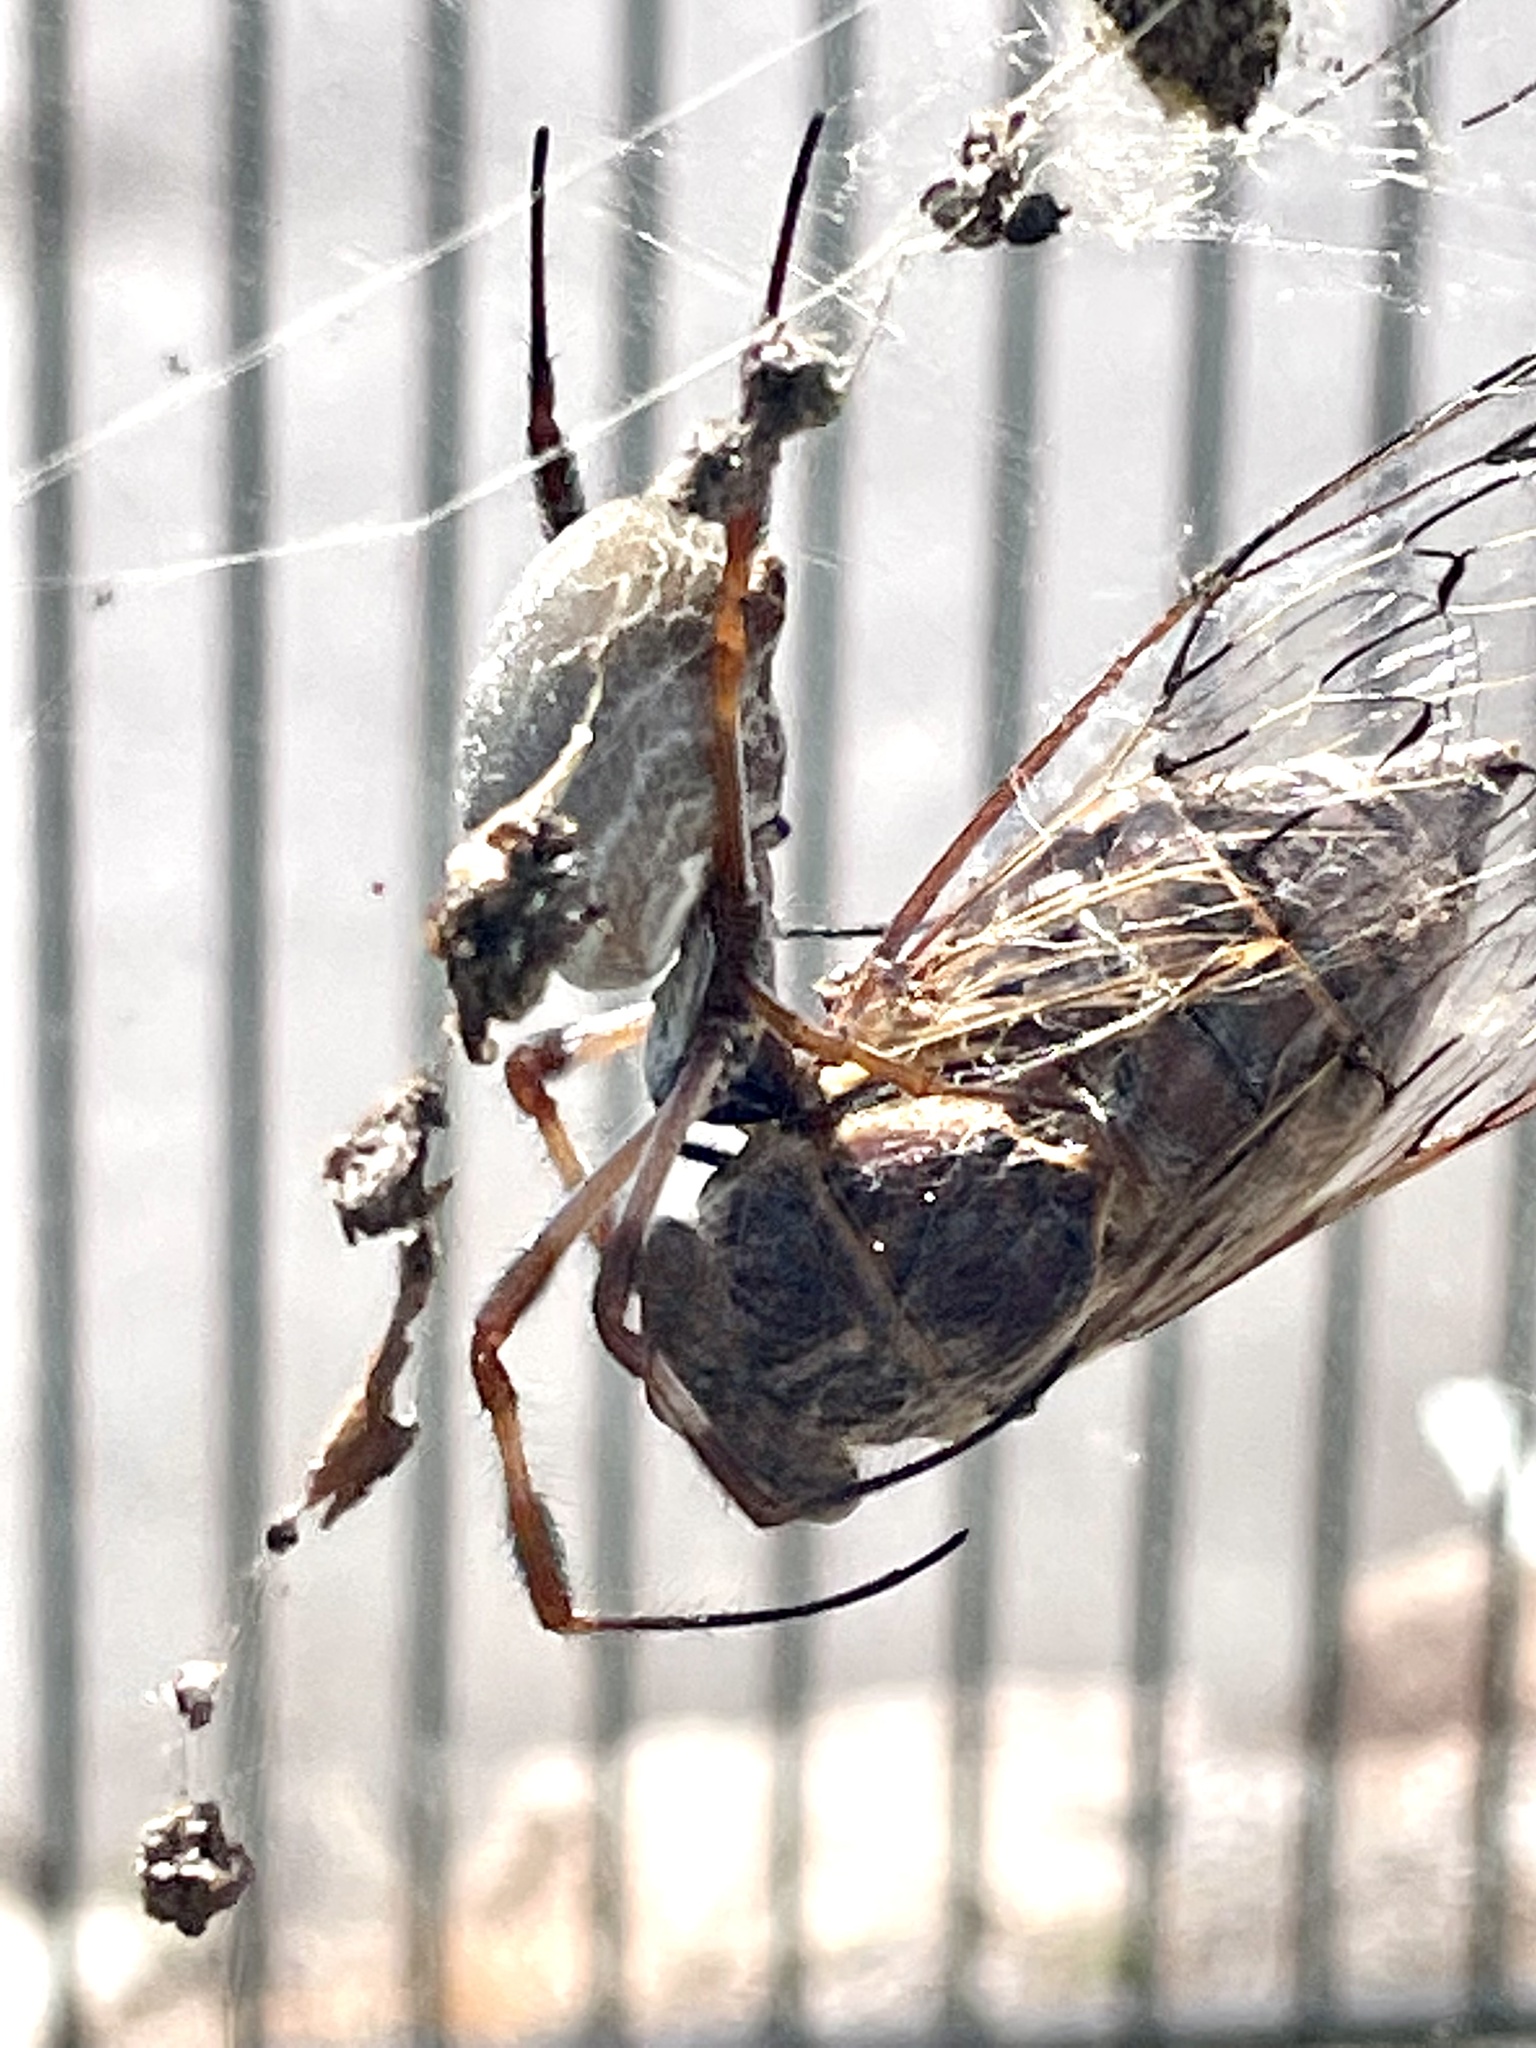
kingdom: Animalia
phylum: Arthropoda
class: Insecta
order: Hemiptera
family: Cicadidae
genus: Henicopsaltria
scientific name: Henicopsaltria eydouxii
